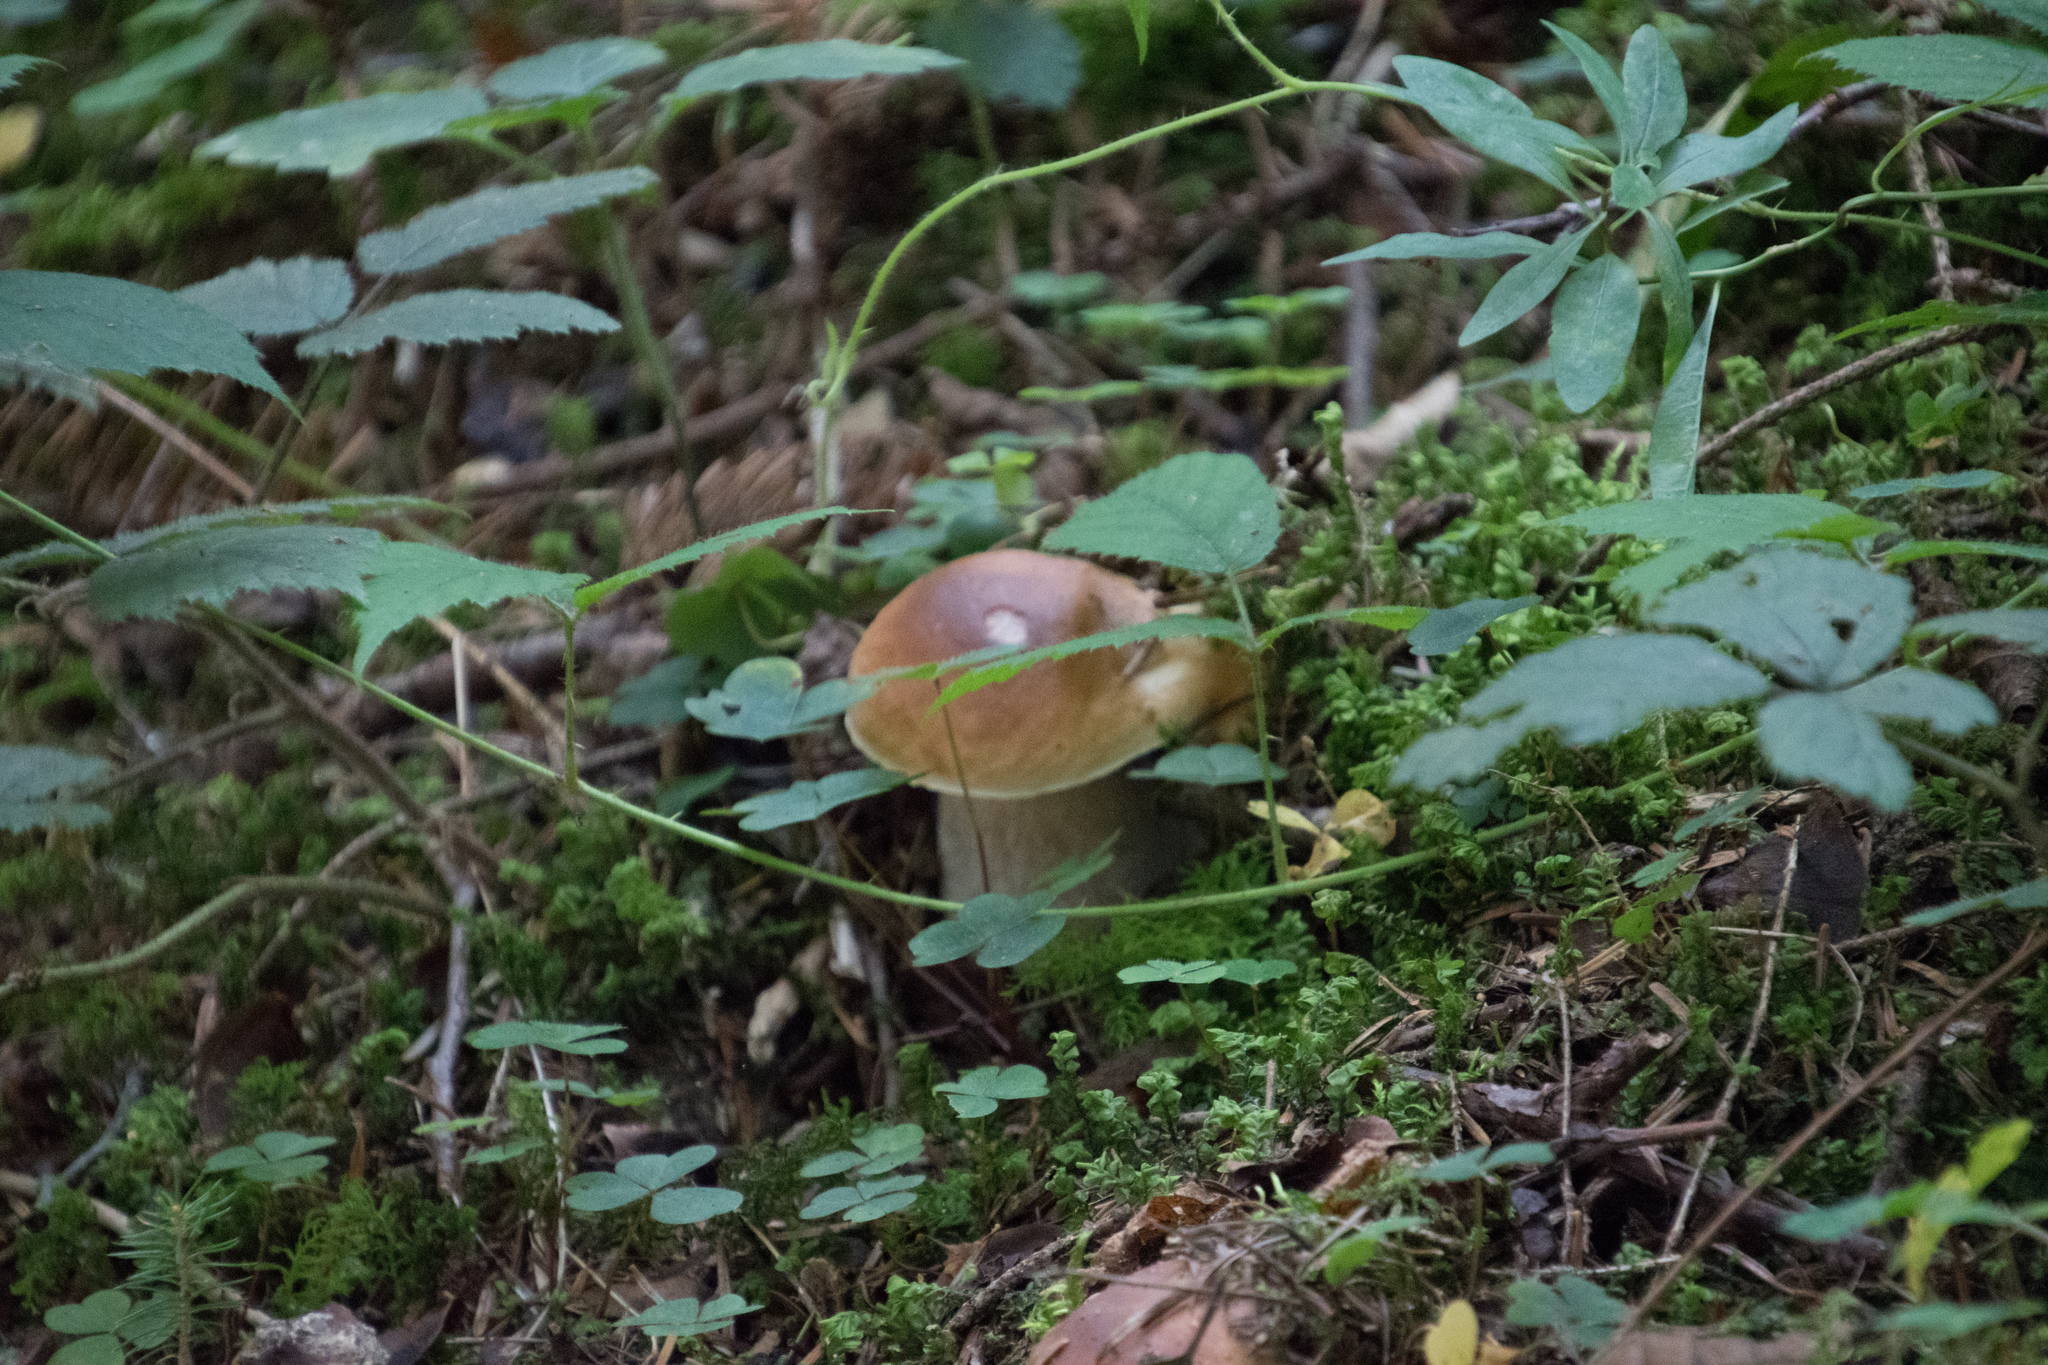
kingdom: Fungi
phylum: Basidiomycota
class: Agaricomycetes
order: Boletales
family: Boletaceae
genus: Boletus
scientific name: Boletus edulis
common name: Cep
